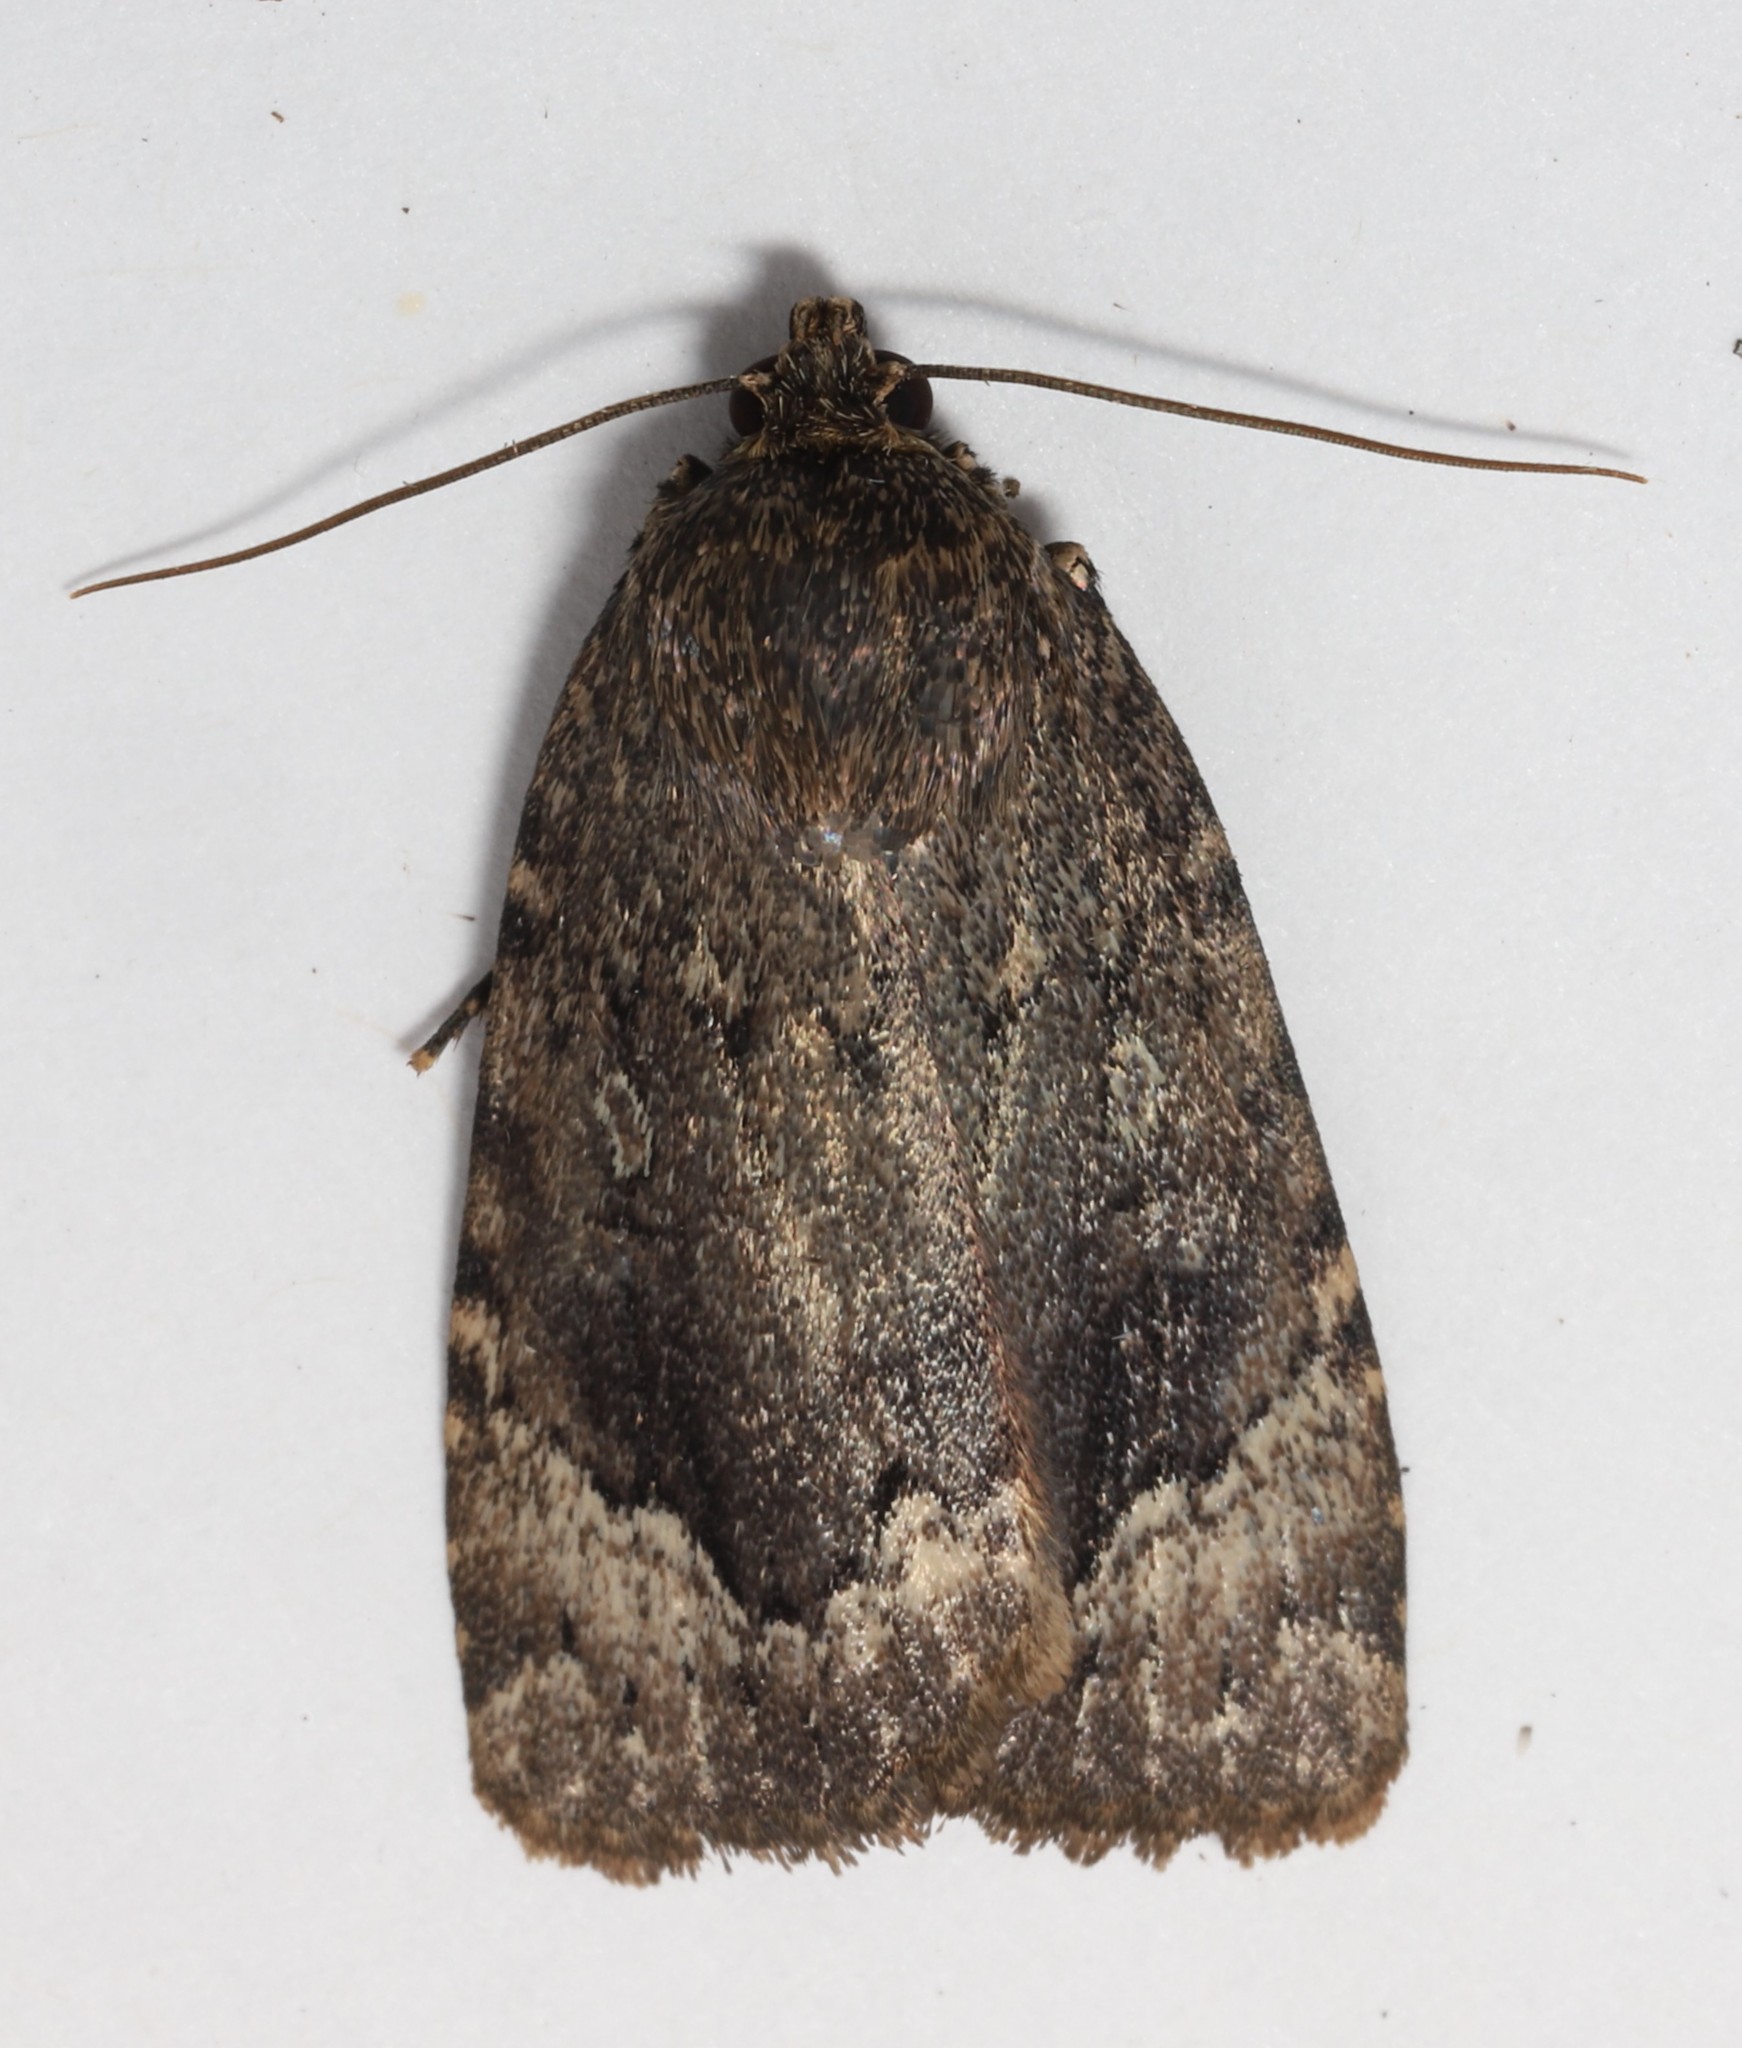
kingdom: Animalia
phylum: Arthropoda
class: Insecta
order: Lepidoptera
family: Noctuidae
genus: Amphipyra
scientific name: Amphipyra pyramidoides
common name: American copper underwing
